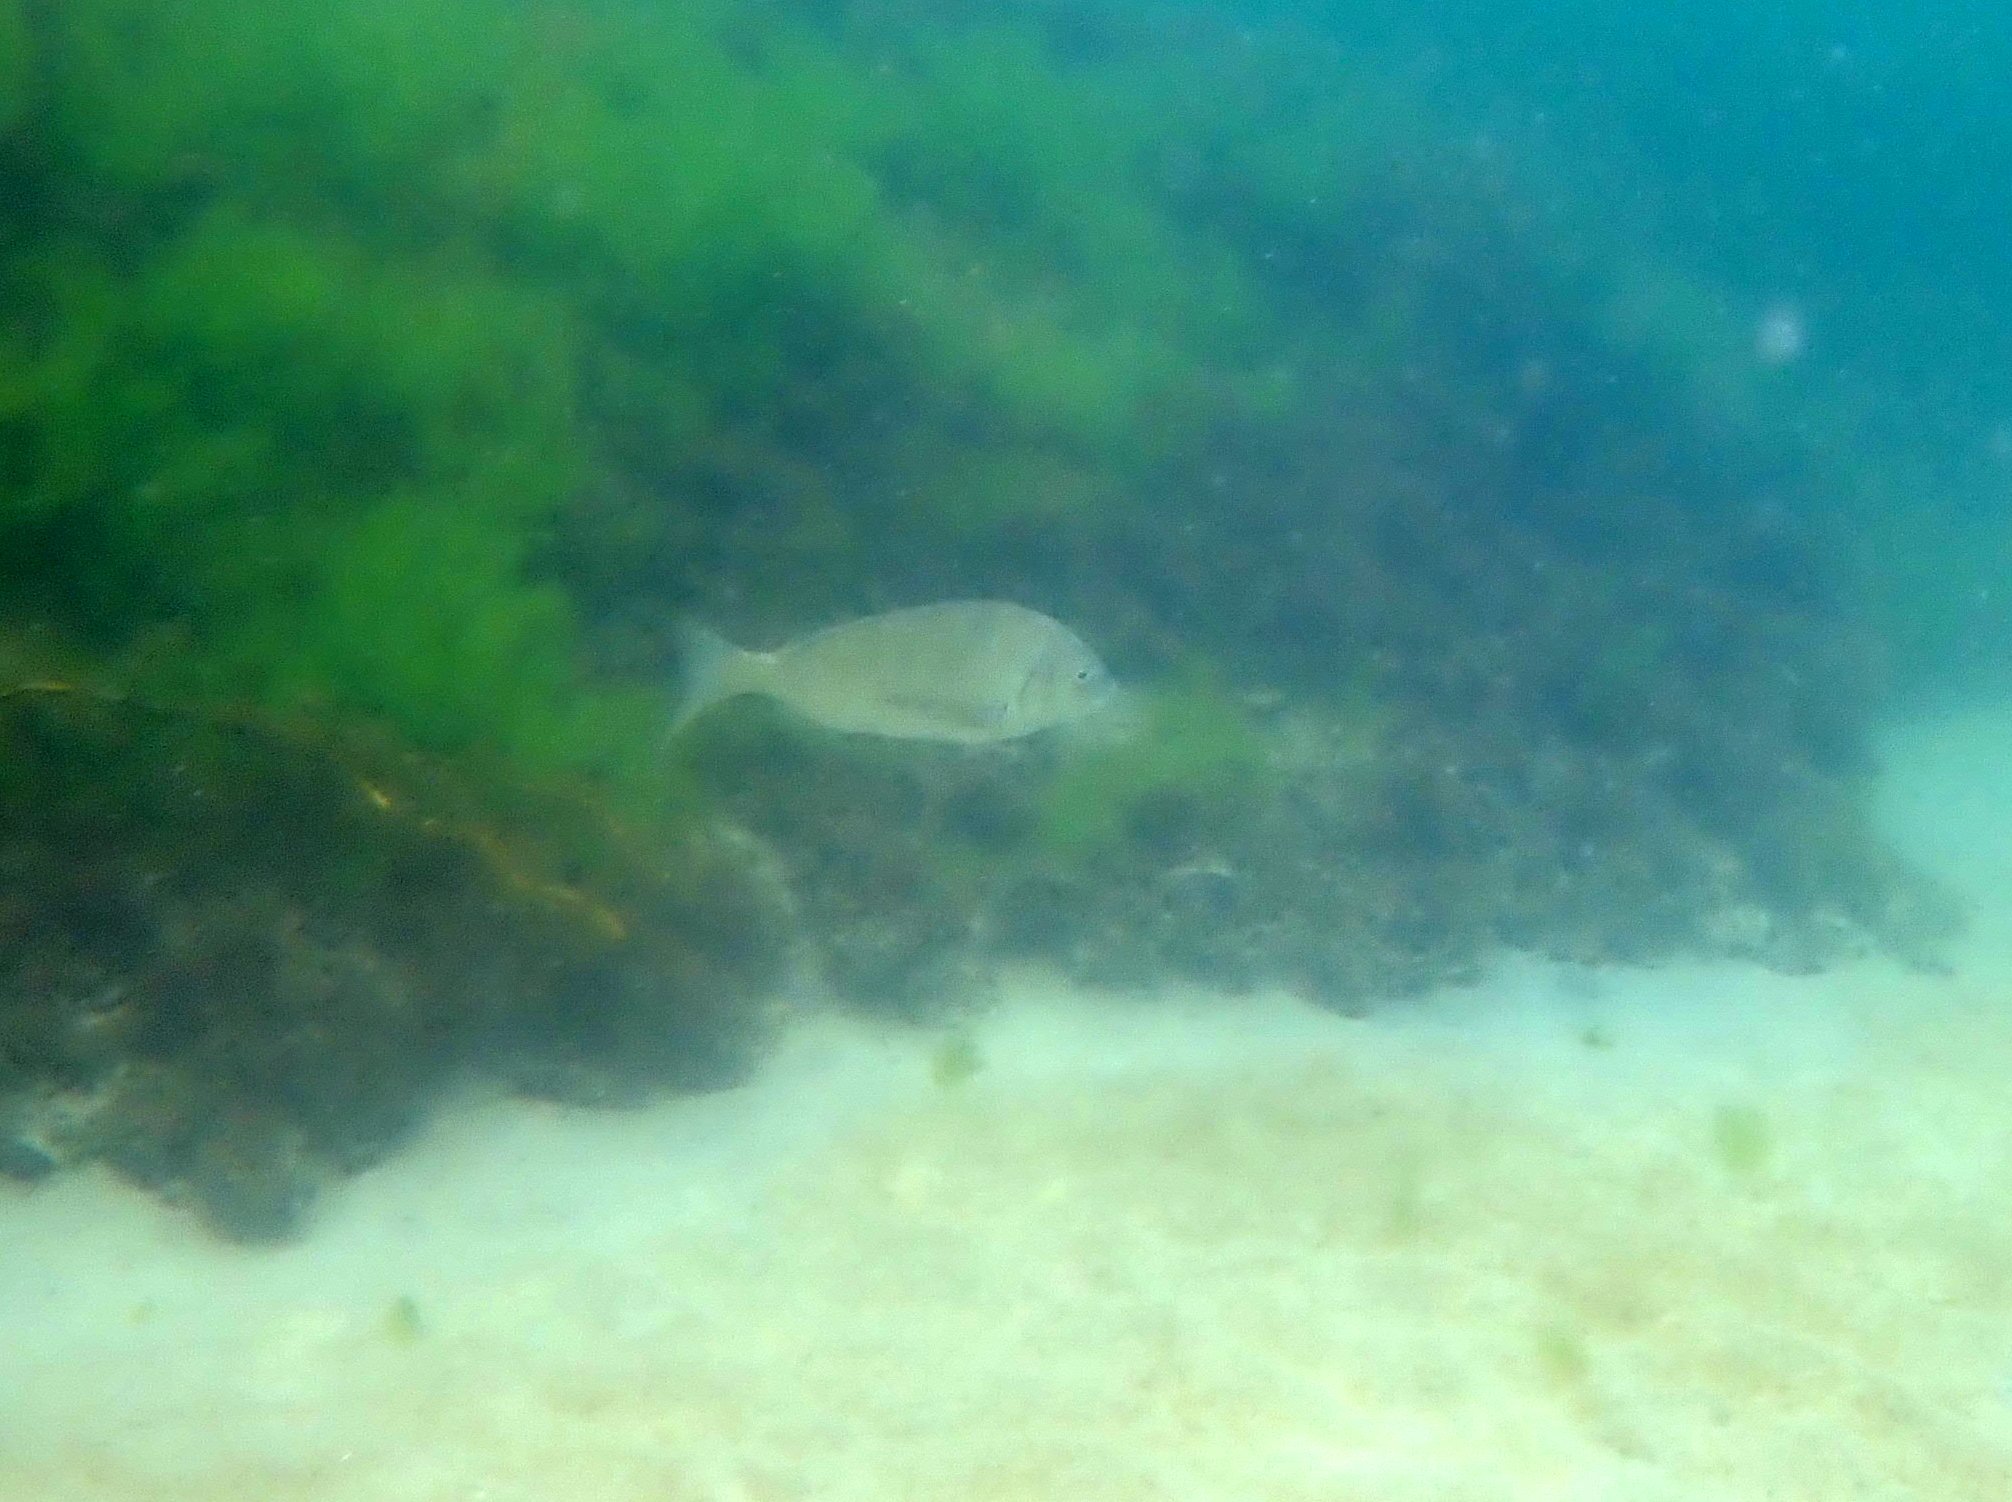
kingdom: Animalia
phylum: Chordata
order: Perciformes
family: Sparidae
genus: Acanthopagrus
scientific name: Acanthopagrus butcheri
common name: Black bream
